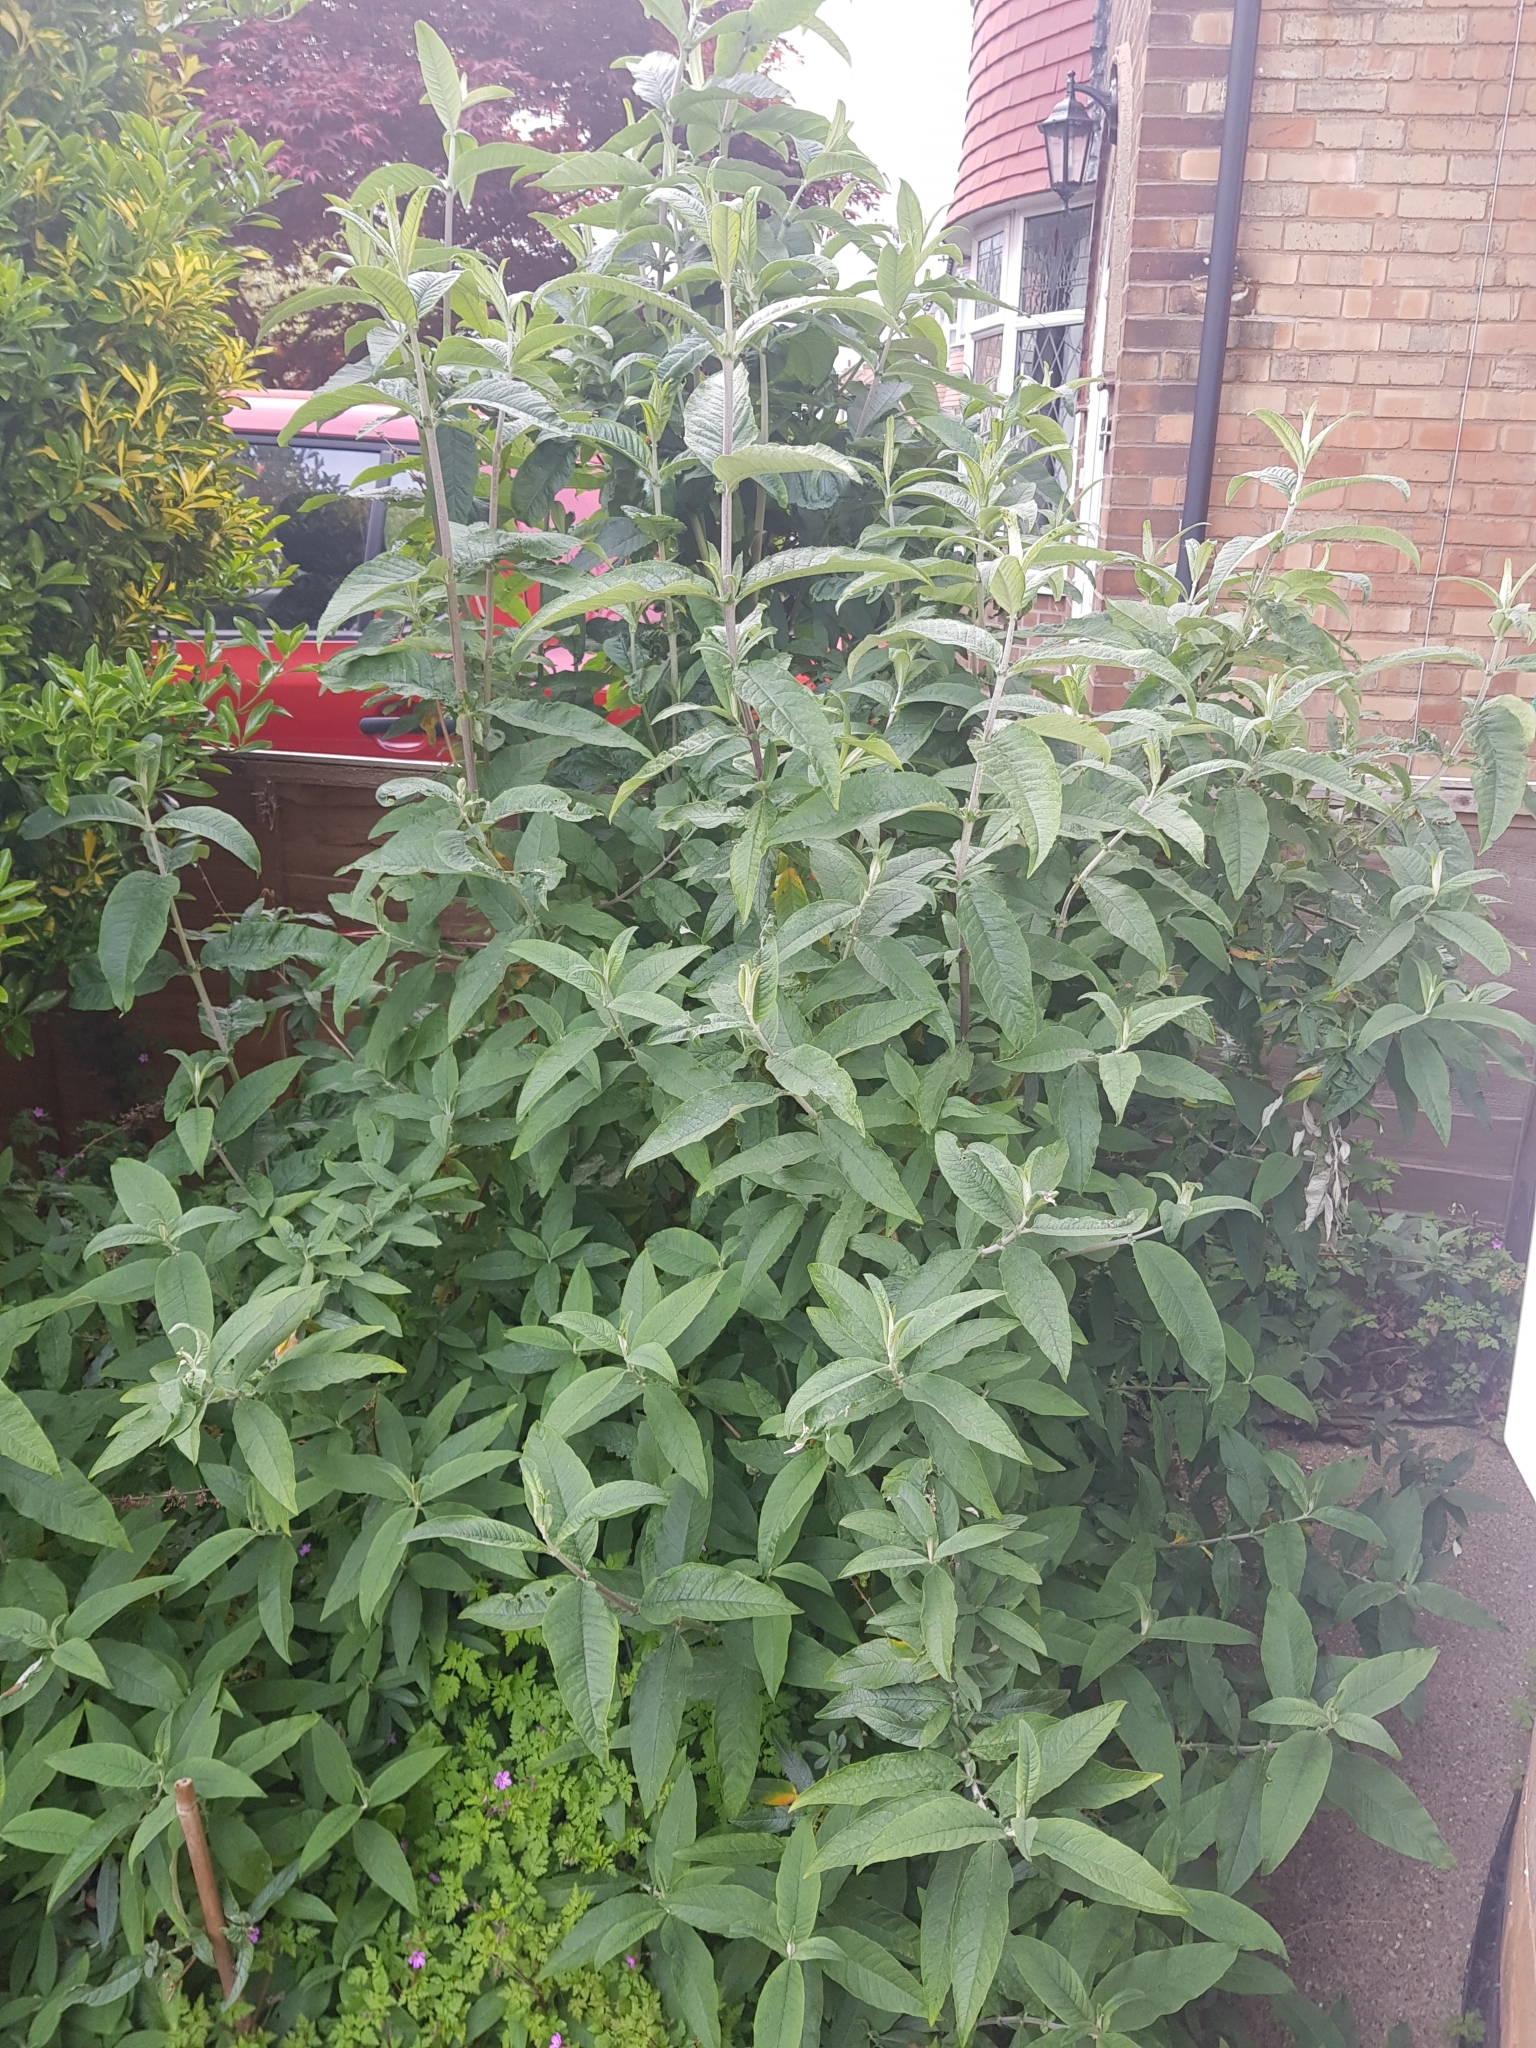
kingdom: Plantae
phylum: Tracheophyta
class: Magnoliopsida
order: Lamiales
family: Scrophulariaceae
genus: Buddleja
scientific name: Buddleja davidii
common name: Butterfly-bush
